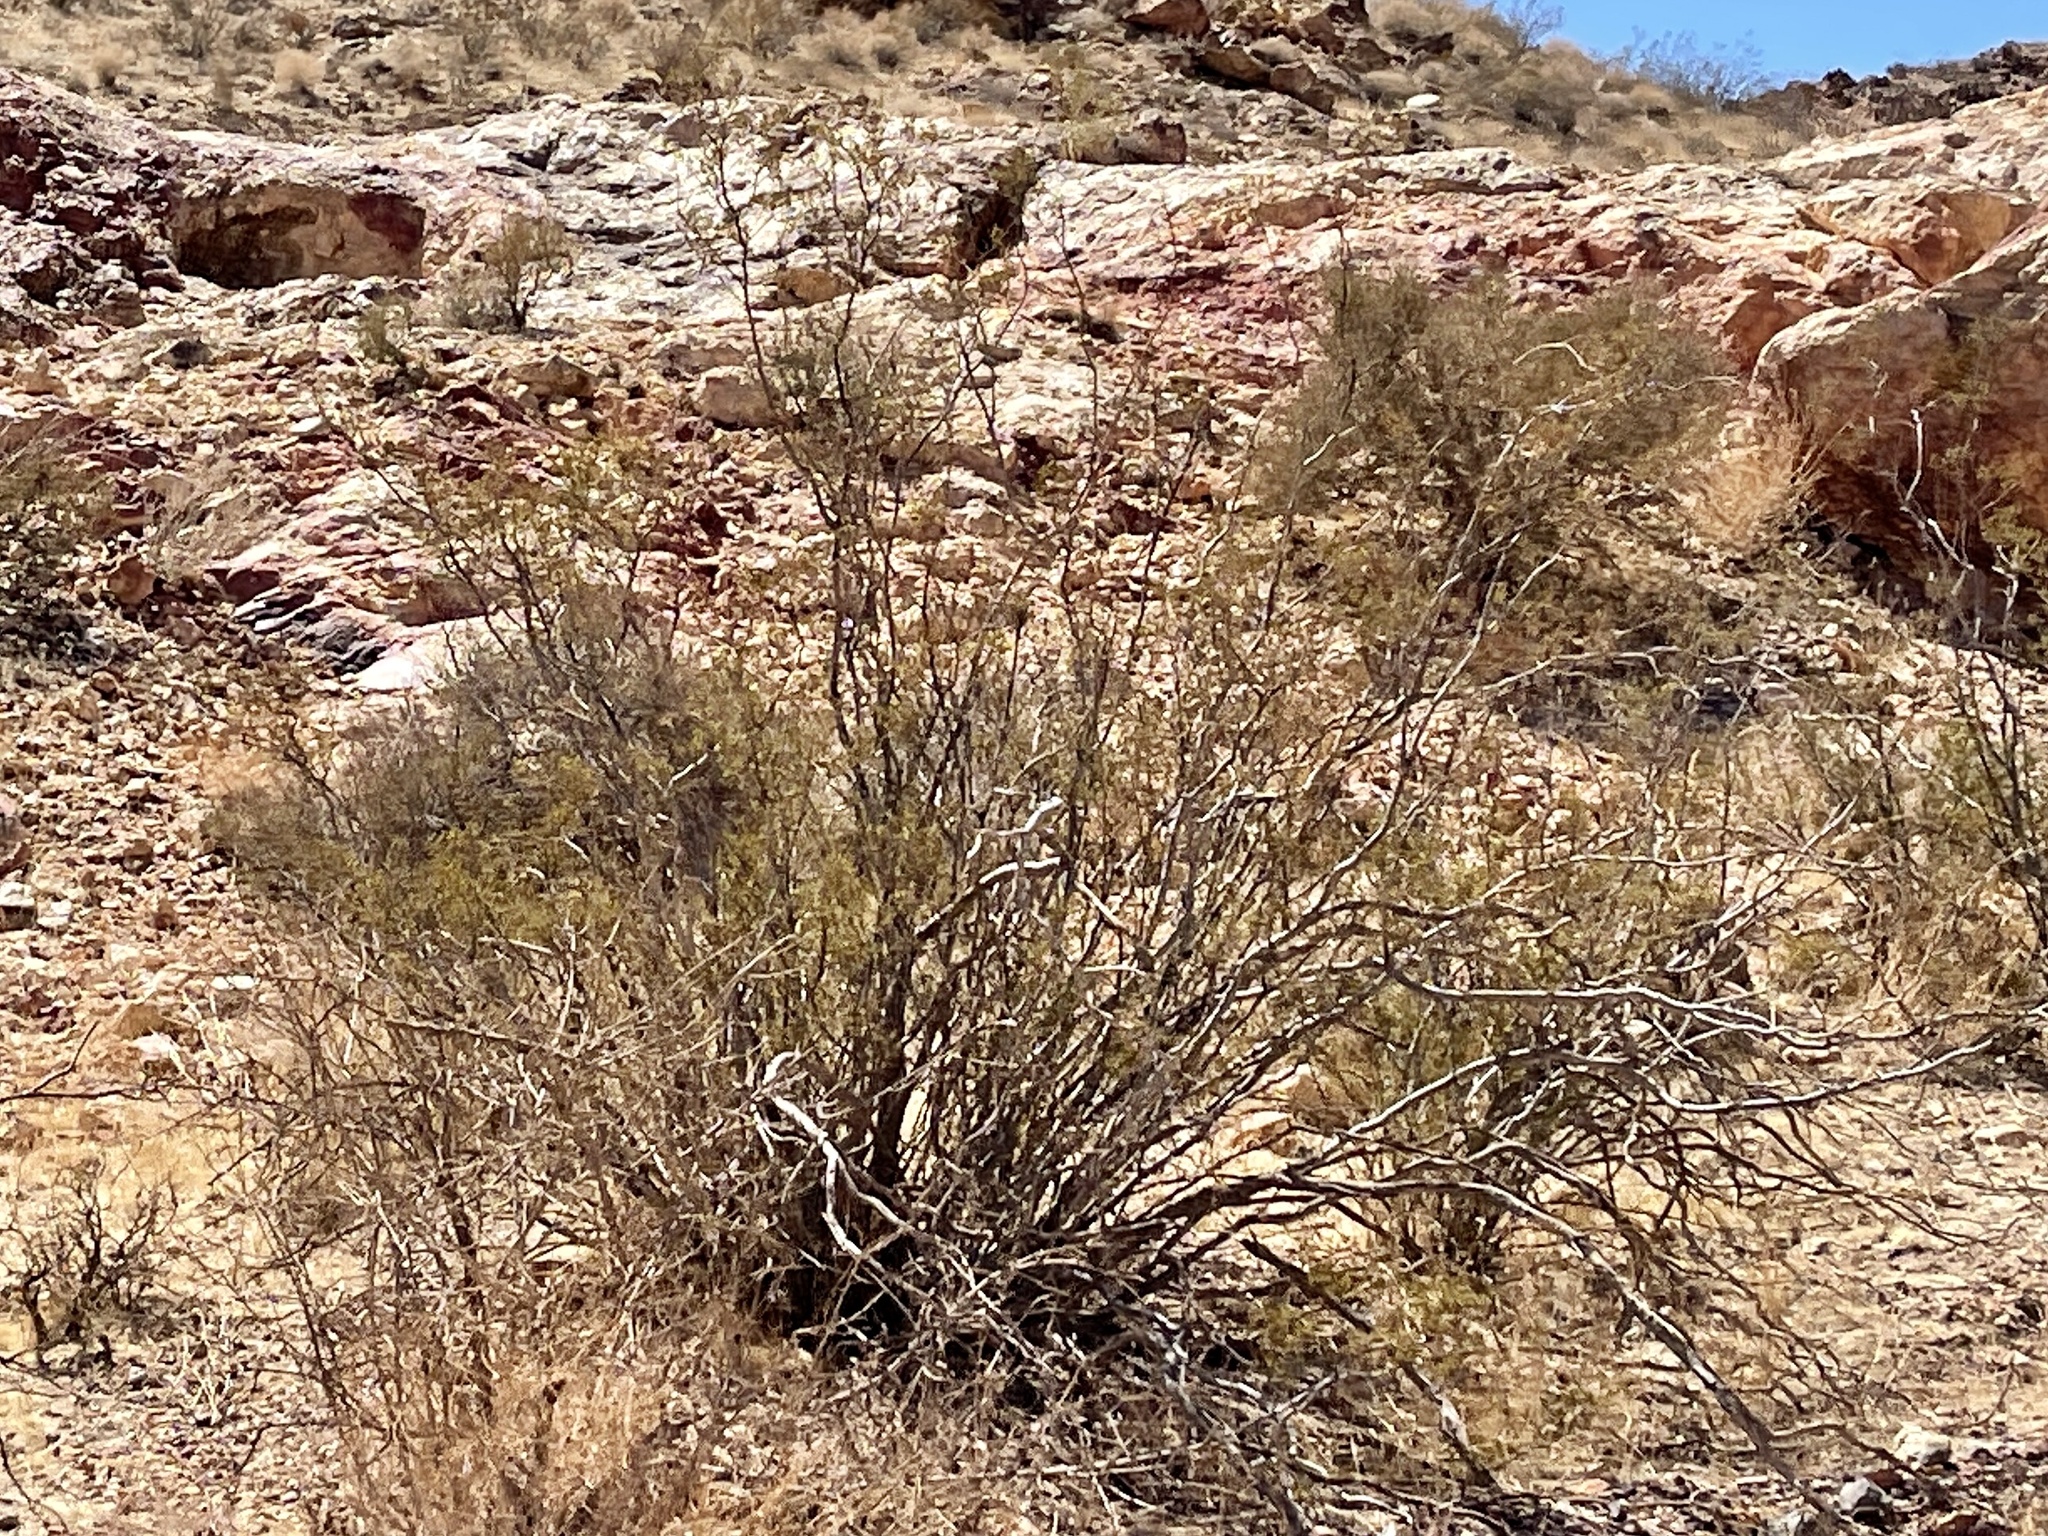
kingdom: Plantae
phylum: Tracheophyta
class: Magnoliopsida
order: Zygophyllales
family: Zygophyllaceae
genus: Larrea
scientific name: Larrea tridentata
